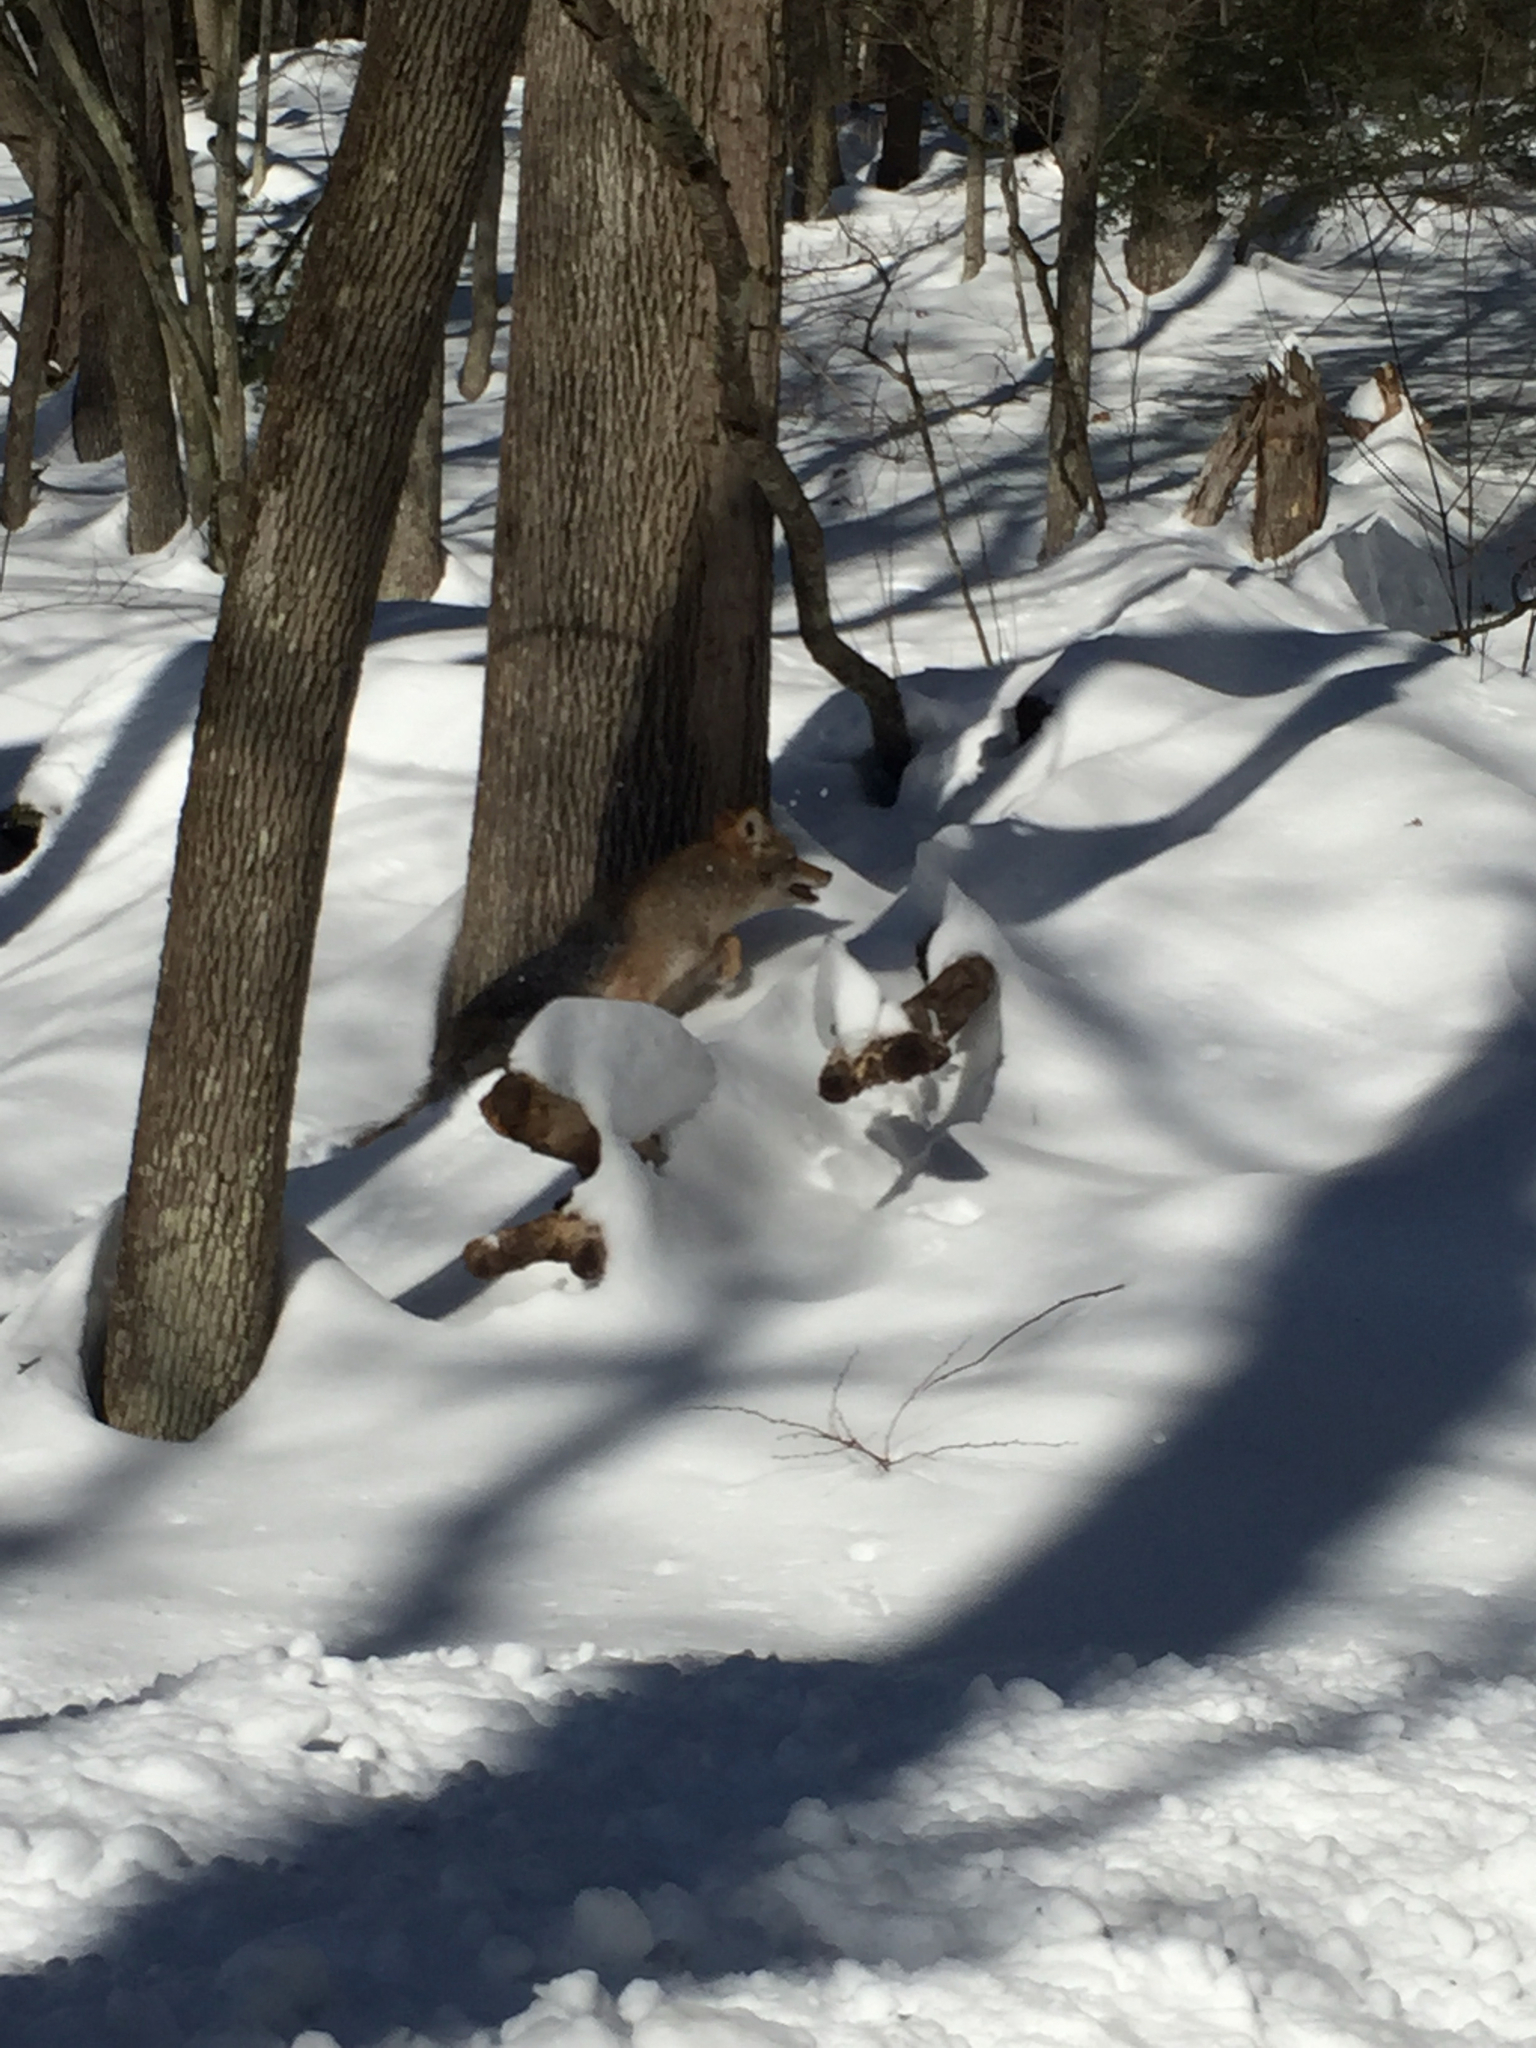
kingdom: Animalia
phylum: Chordata
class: Mammalia
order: Carnivora
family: Canidae
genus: Canis
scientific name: Canis latrans
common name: Coyote
